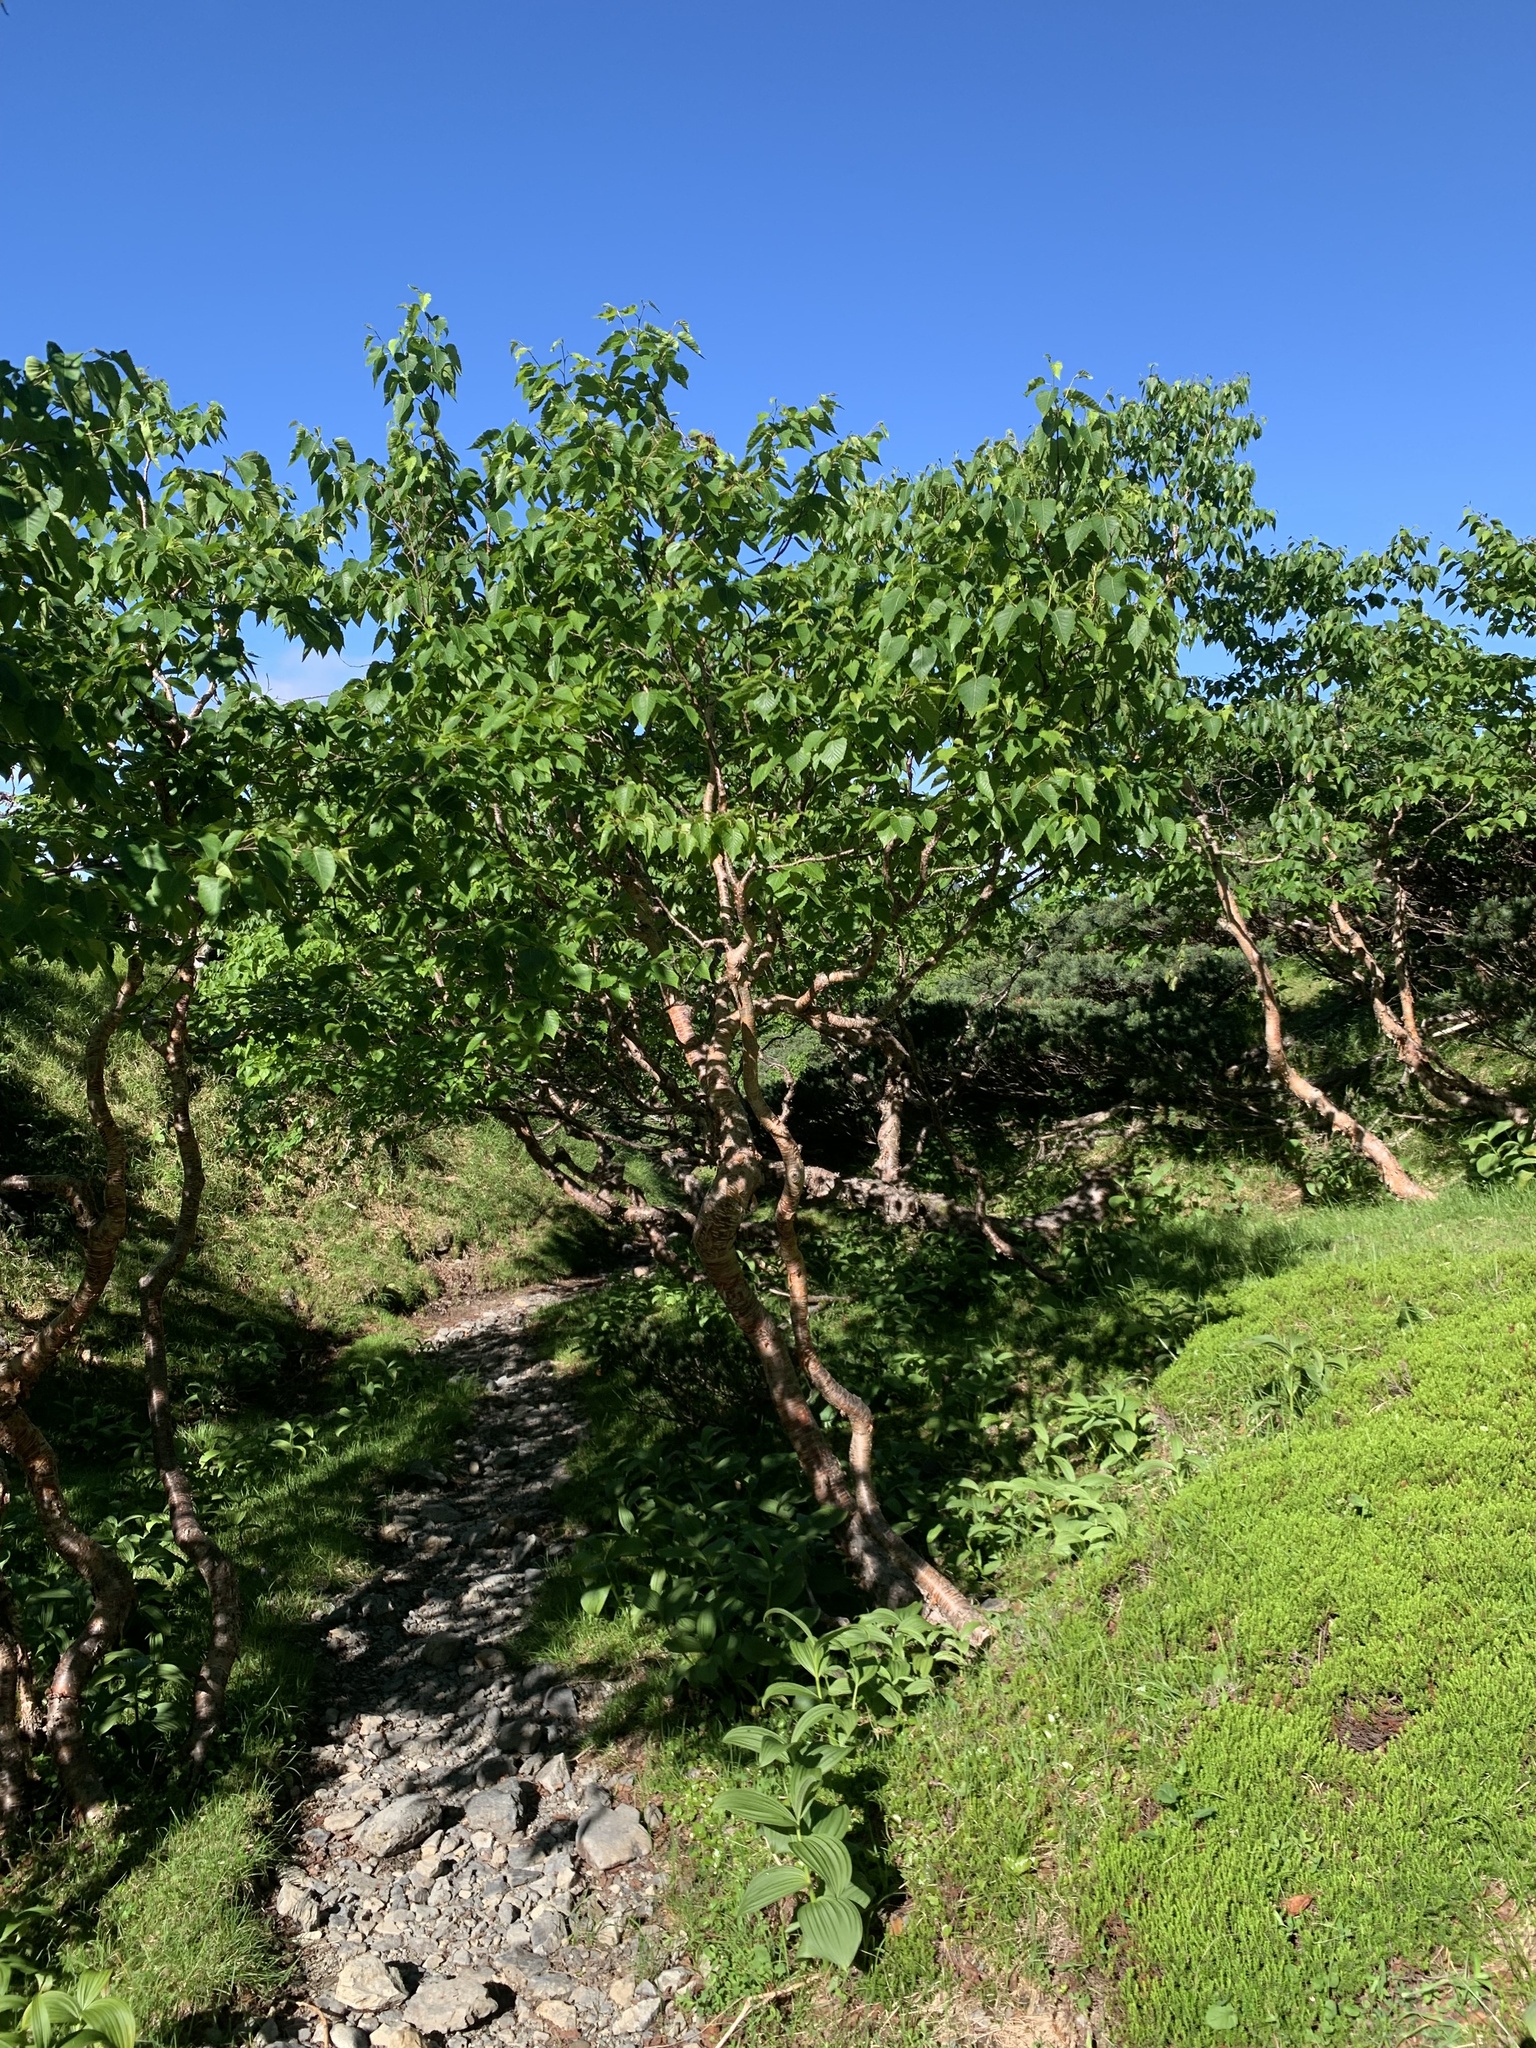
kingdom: Plantae
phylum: Tracheophyta
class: Magnoliopsida
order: Fagales
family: Betulaceae
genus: Betula
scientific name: Betula ermanii
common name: Erman's birch
